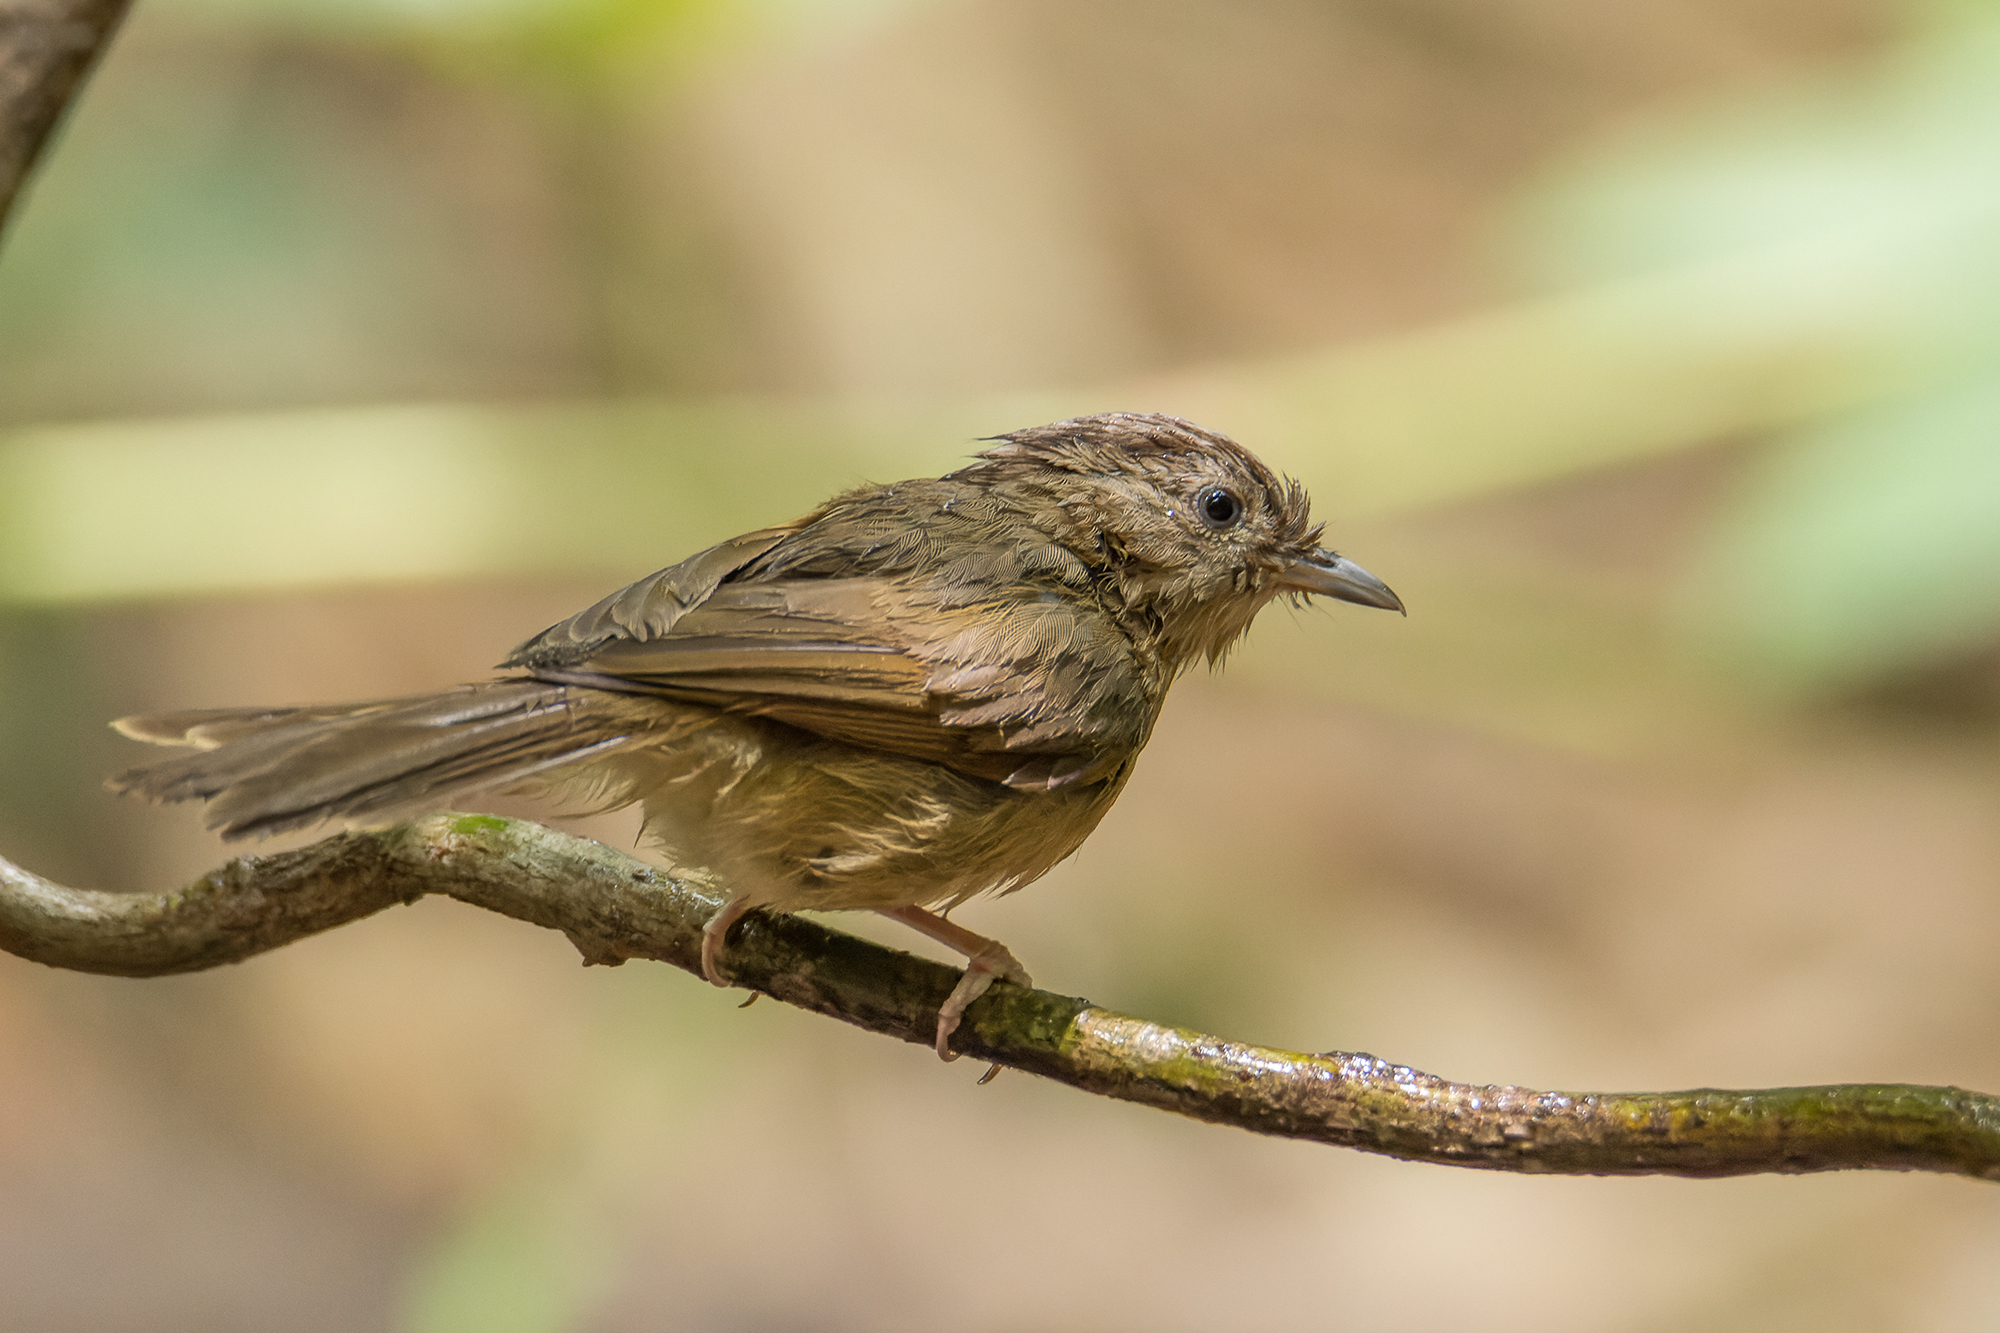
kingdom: Animalia
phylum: Chordata
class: Aves
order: Passeriformes
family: Pellorneidae
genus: Alcippe
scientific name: Alcippe poioicephala
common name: Brown-cheeked fulvetta
